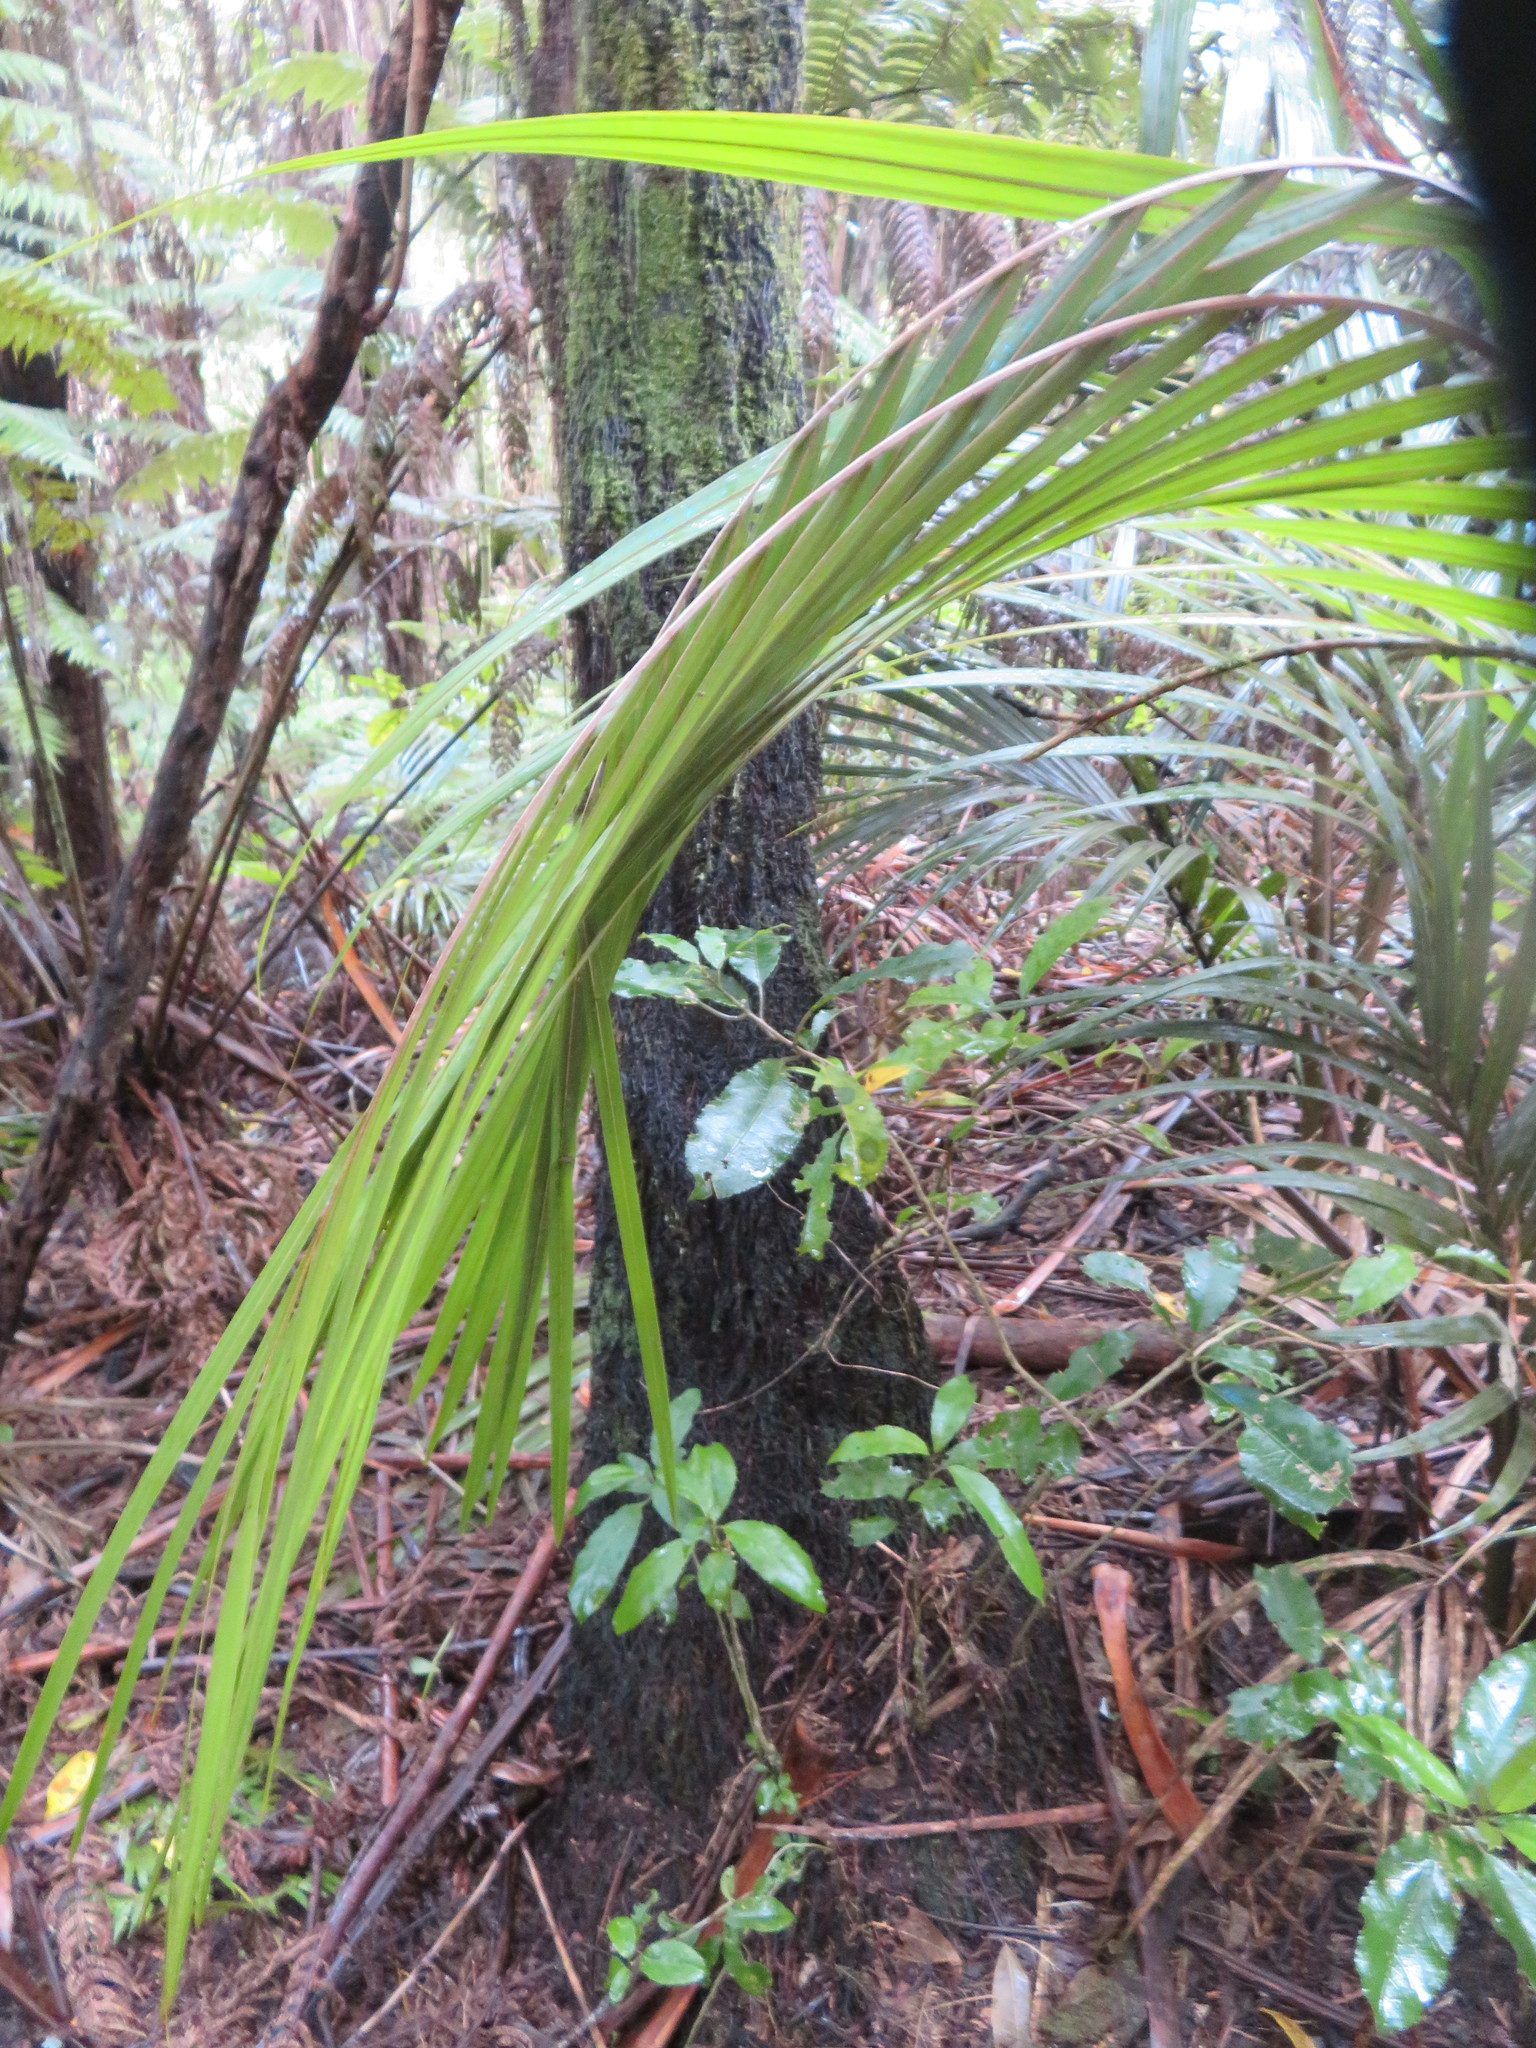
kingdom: Plantae
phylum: Tracheophyta
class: Magnoliopsida
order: Malpighiales
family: Violaceae
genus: Melicytus
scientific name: Melicytus ramiflorus
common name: Mahoe
